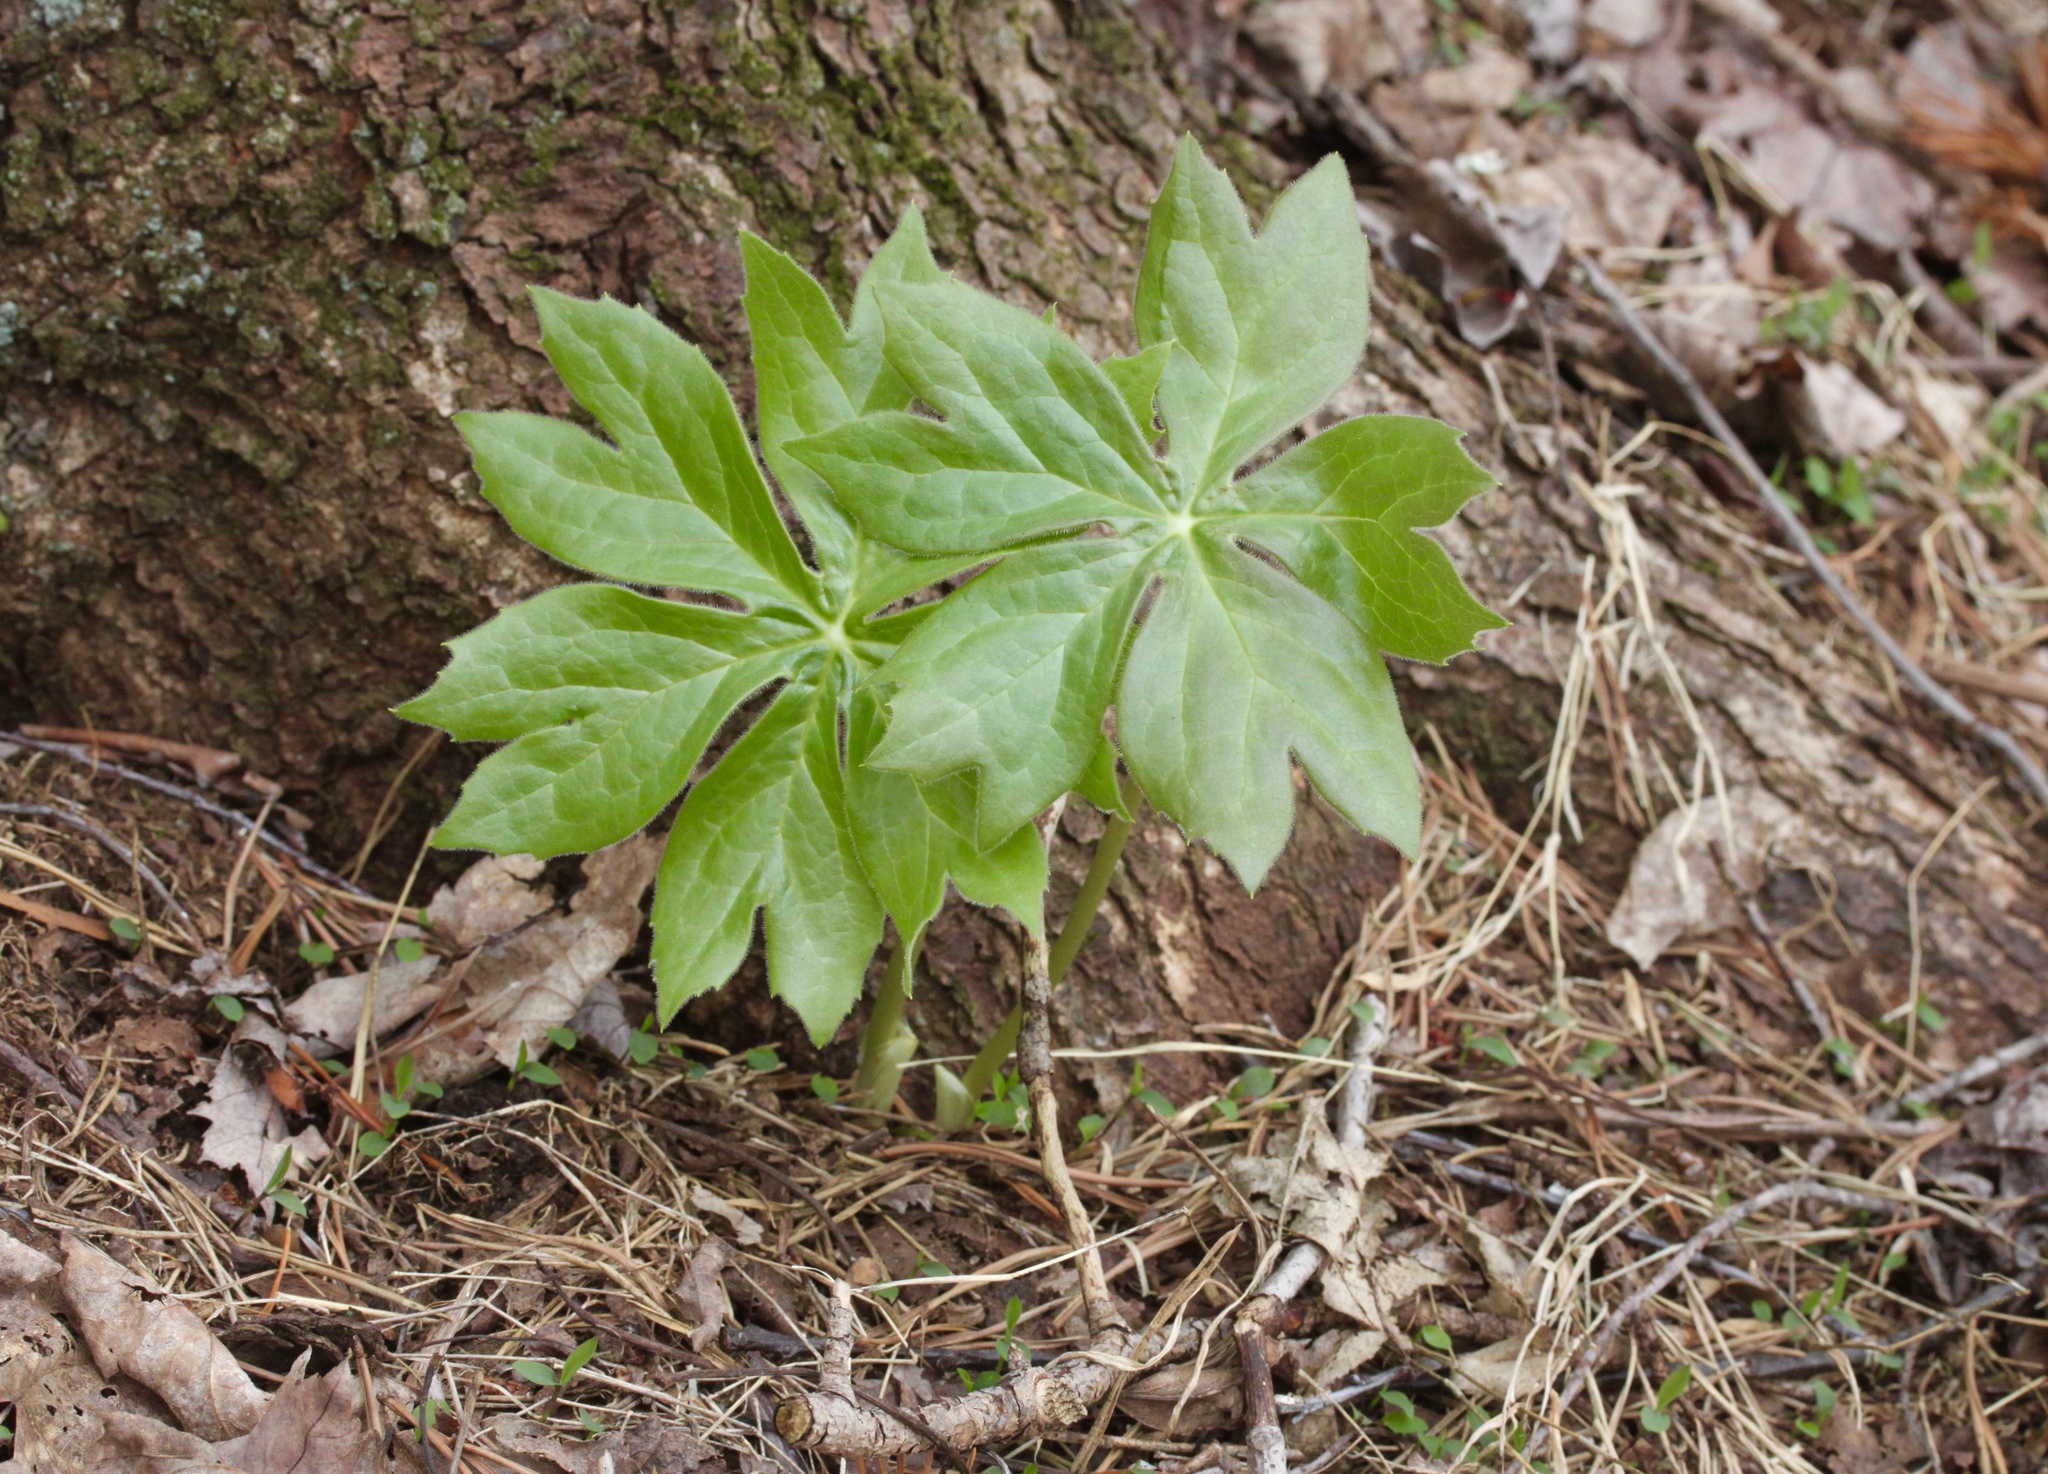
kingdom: Plantae
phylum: Tracheophyta
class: Magnoliopsida
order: Ranunculales
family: Berberidaceae
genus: Podophyllum
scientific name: Podophyllum peltatum
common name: Wild mandrake
